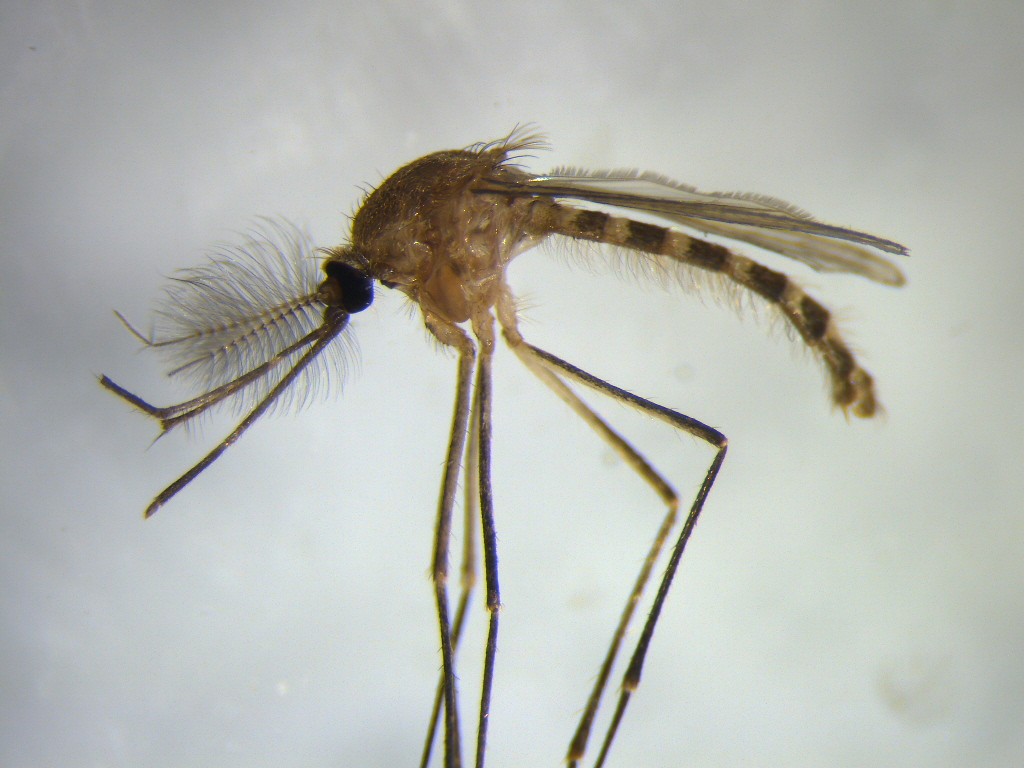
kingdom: Animalia
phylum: Arthropoda
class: Insecta
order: Diptera
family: Culicidae
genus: Culex
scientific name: Culex quinquefasciatus
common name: Southern house mosquito
